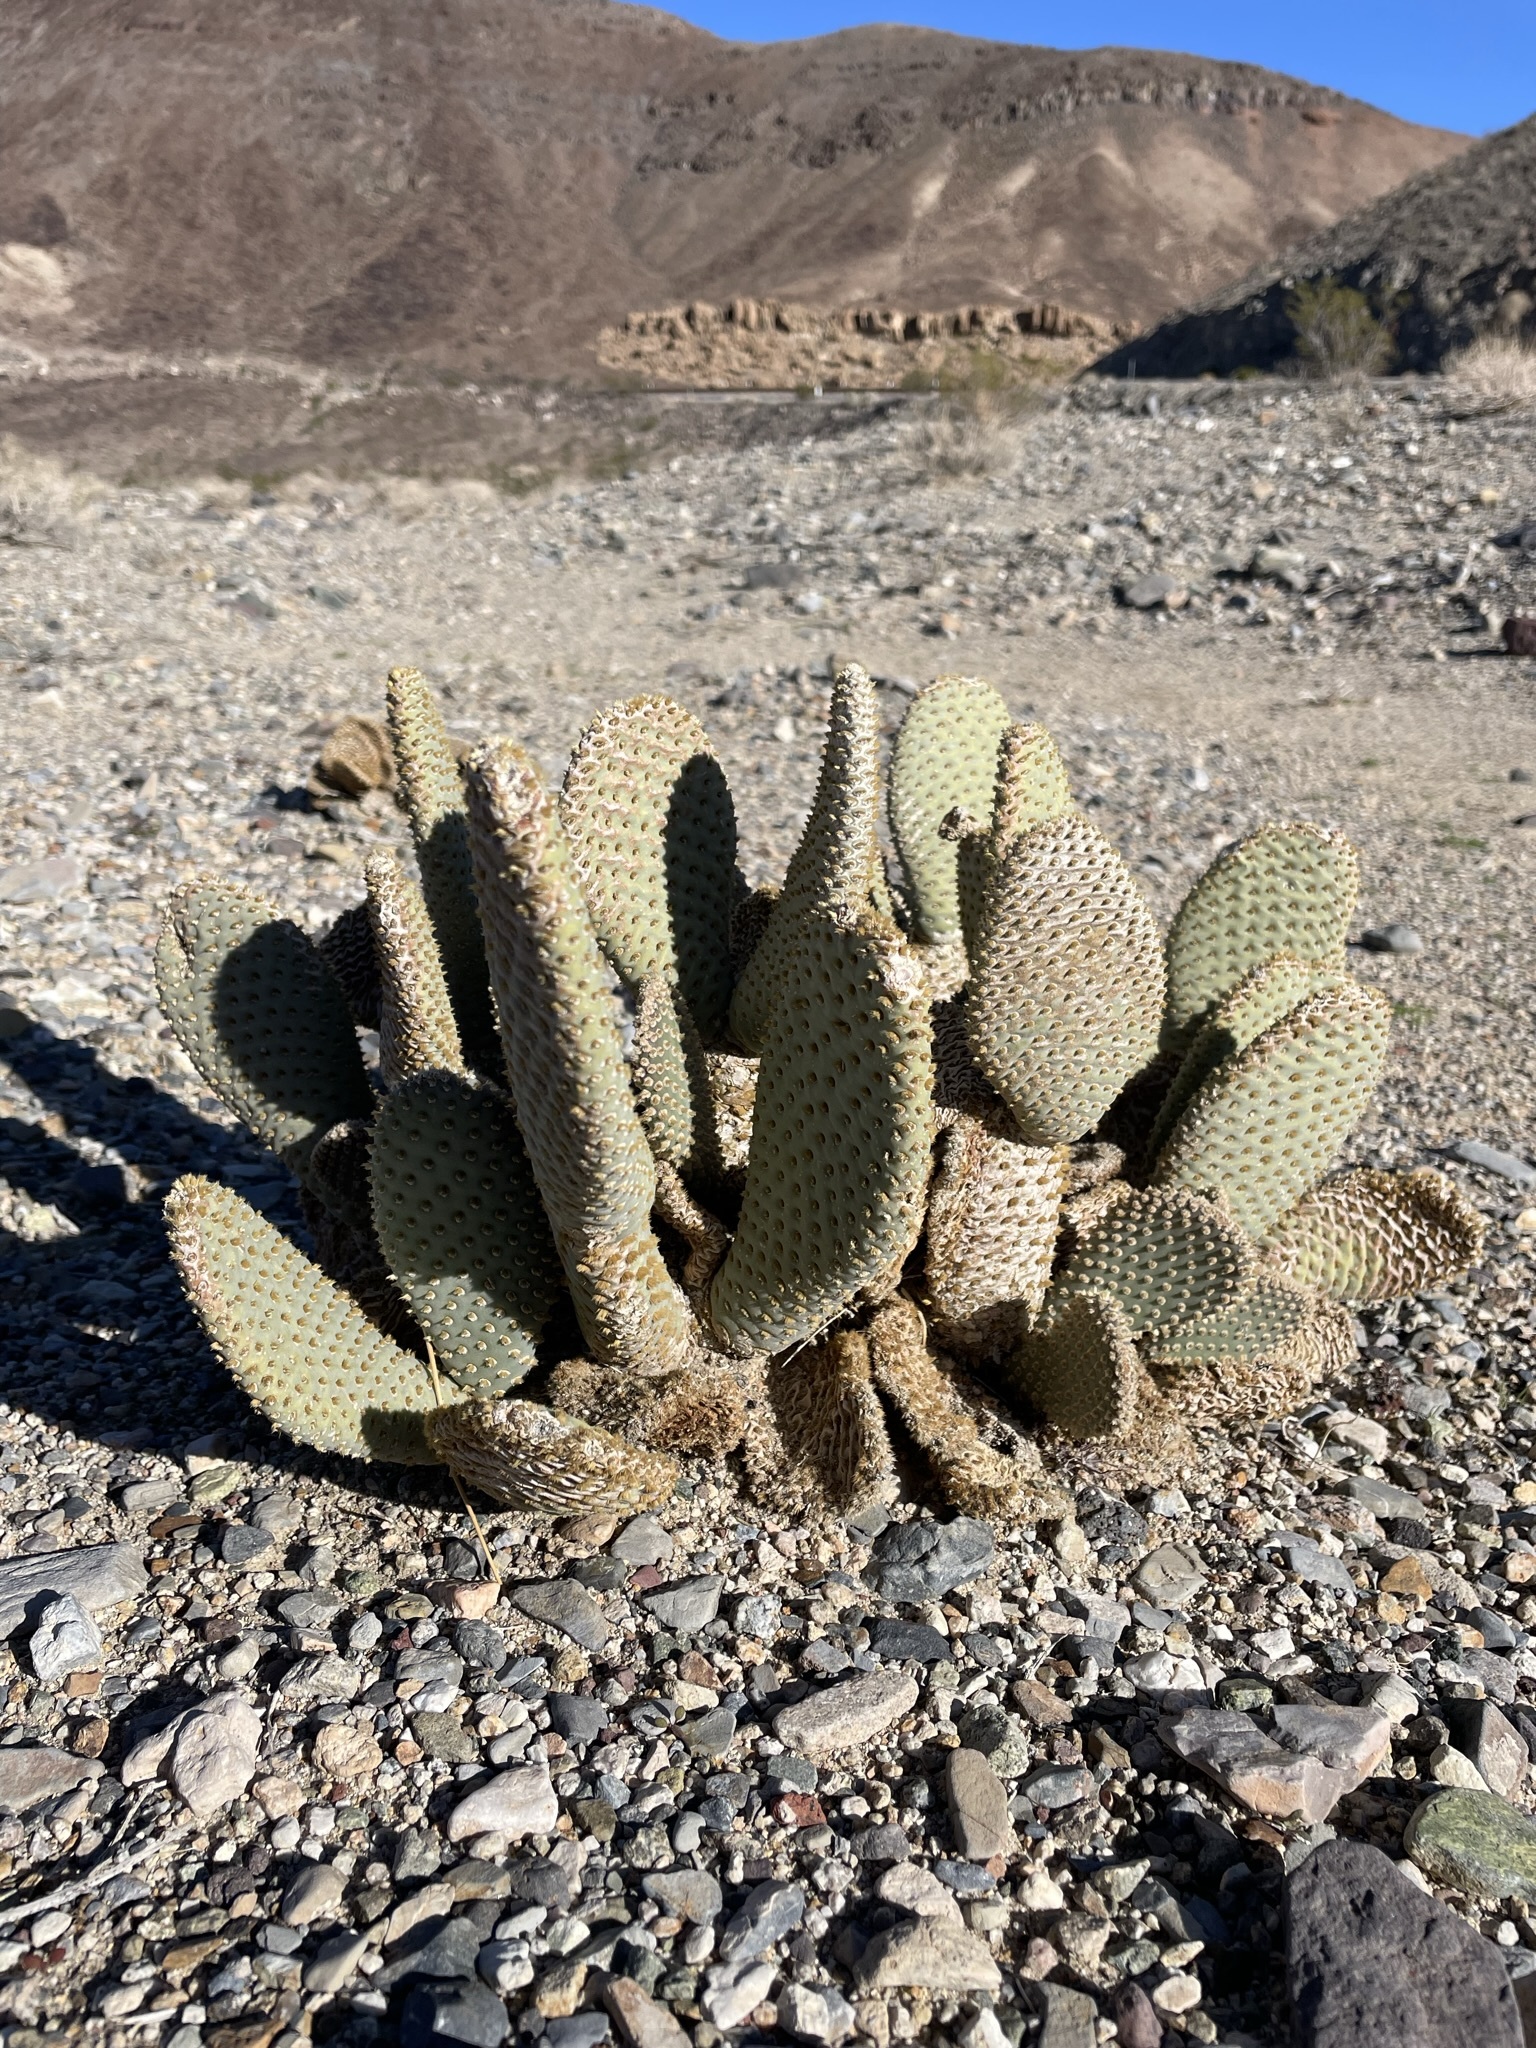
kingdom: Plantae
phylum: Tracheophyta
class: Magnoliopsida
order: Caryophyllales
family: Cactaceae
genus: Opuntia
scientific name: Opuntia basilaris
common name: Beavertail prickly-pear
